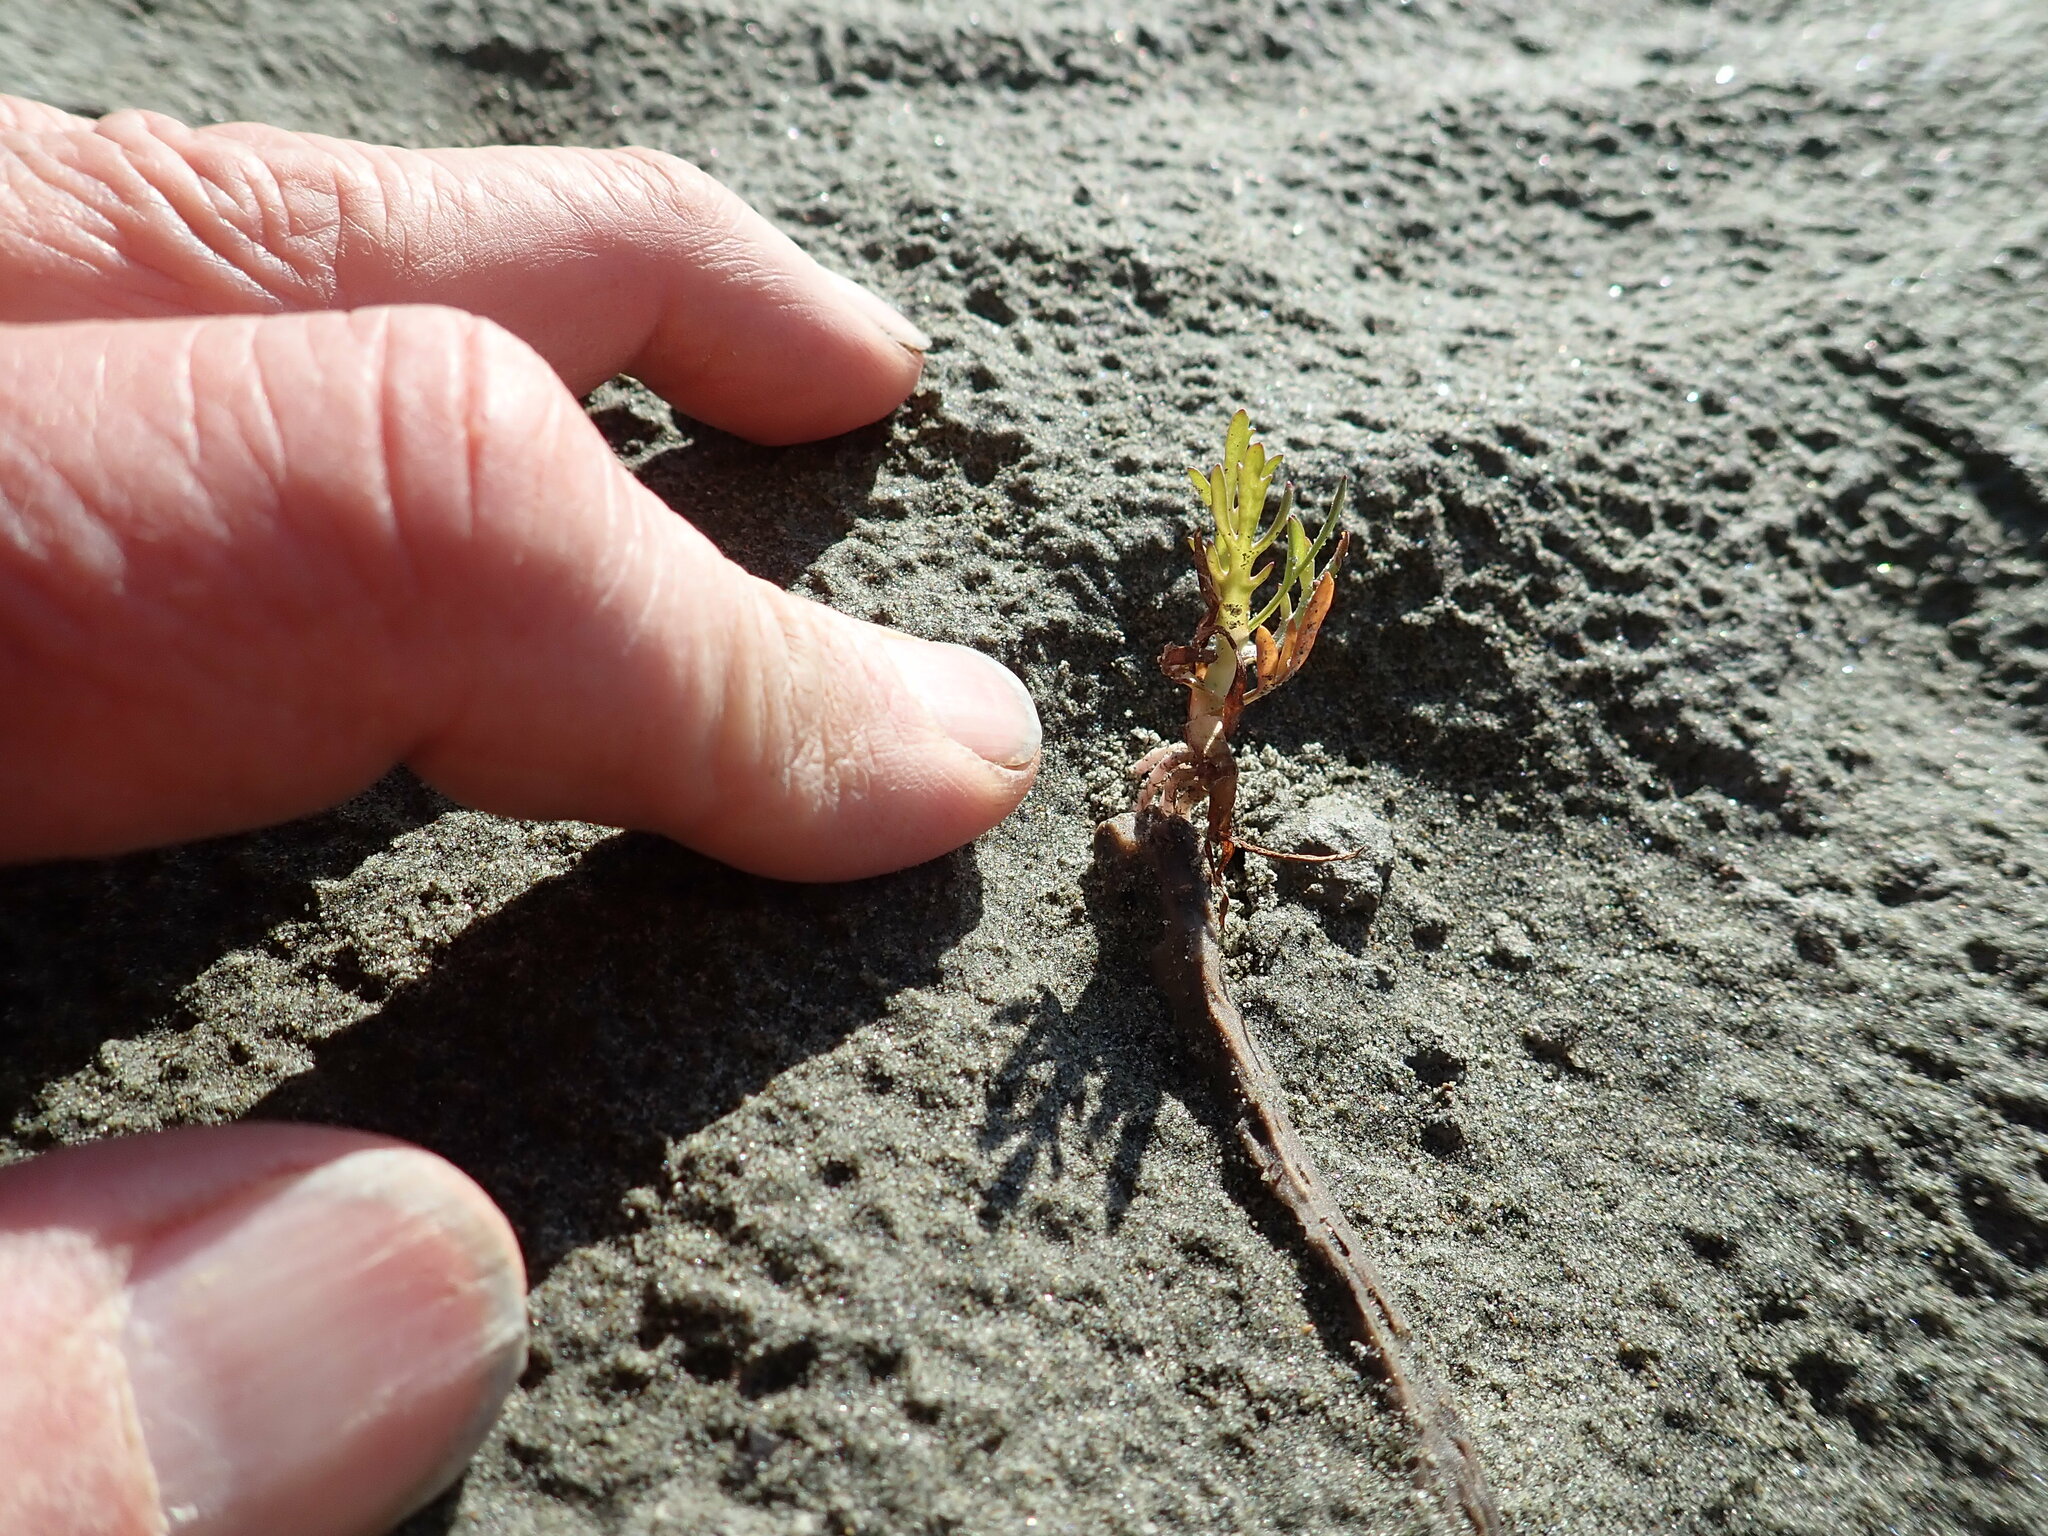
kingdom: Plantae
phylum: Tracheophyta
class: Magnoliopsida
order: Asterales
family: Asteraceae
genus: Cotula
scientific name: Cotula coronopifolia
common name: Buttonweed
